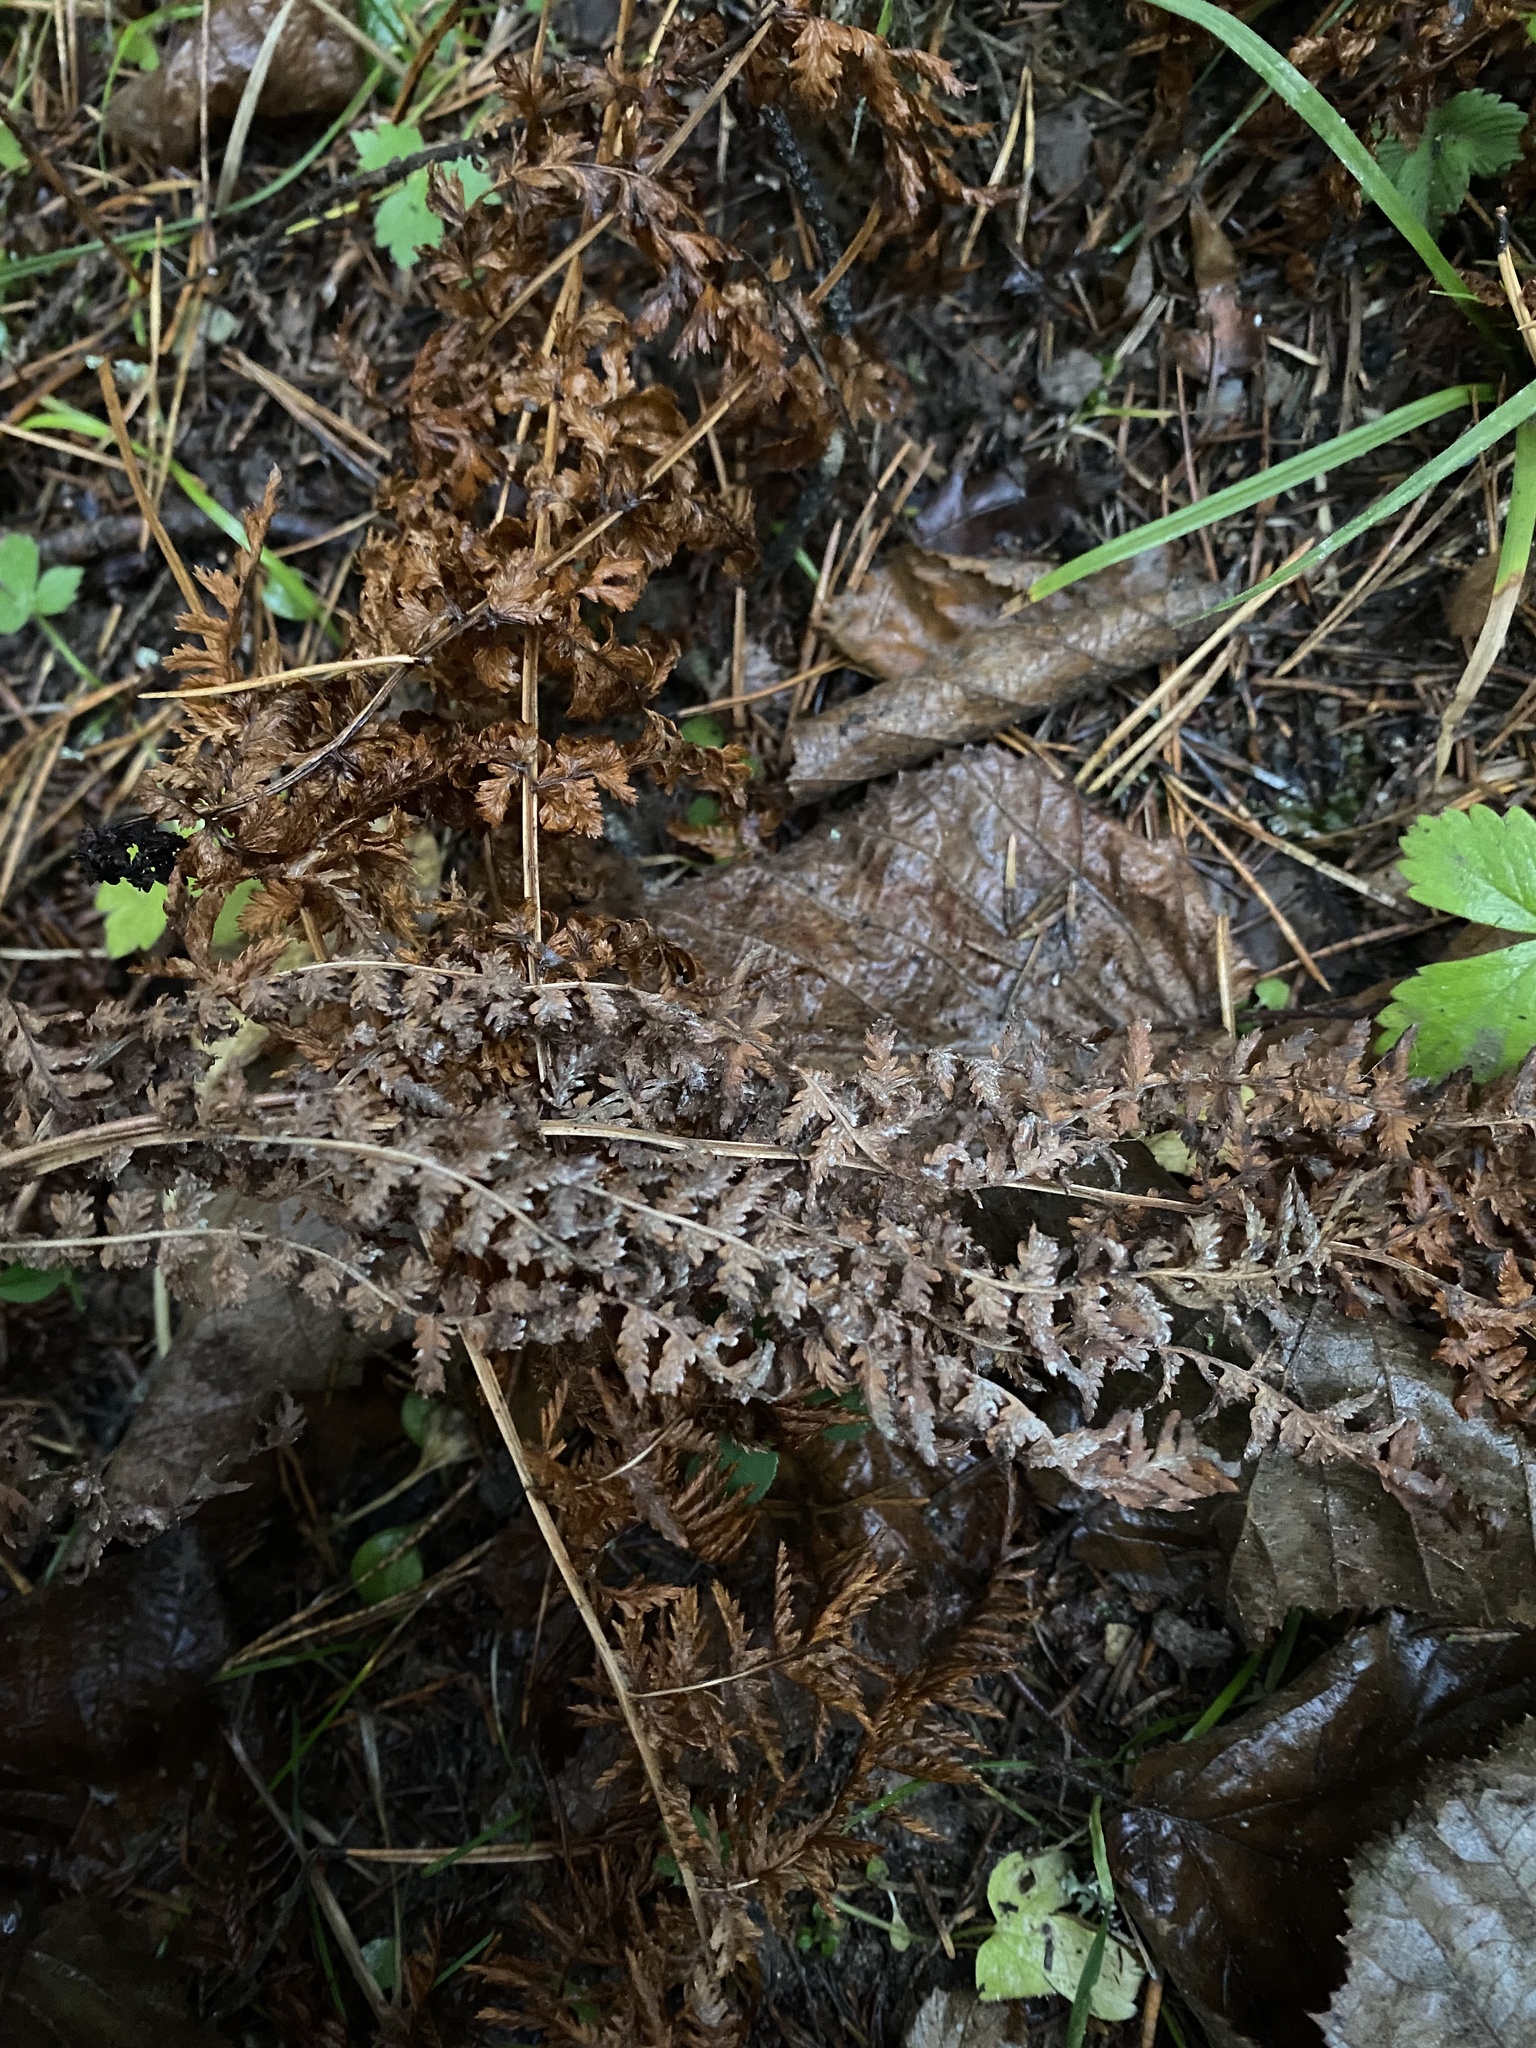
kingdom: Plantae
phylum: Tracheophyta
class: Polypodiopsida
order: Polypodiales
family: Dennstaedtiaceae
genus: Pteridium
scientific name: Pteridium aquilinum
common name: Bracken
